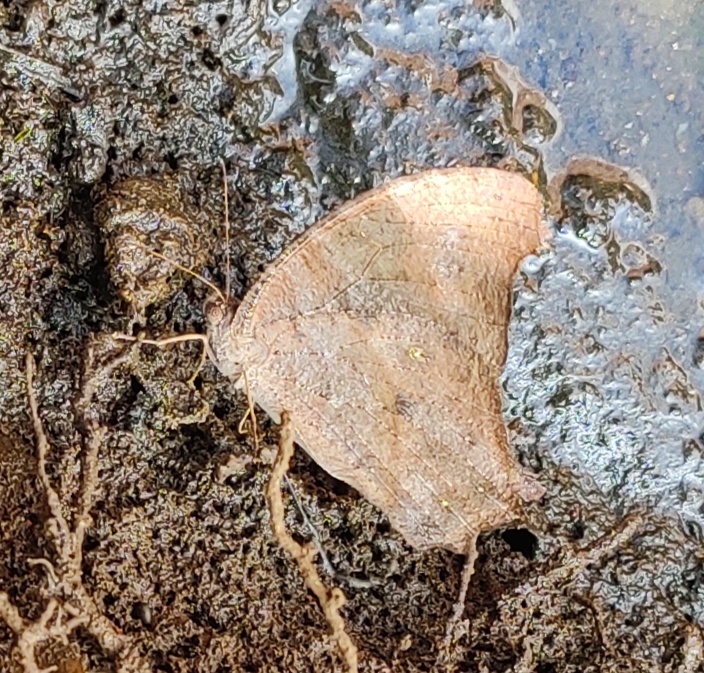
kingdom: Animalia
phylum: Arthropoda
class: Insecta
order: Lepidoptera
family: Nymphalidae
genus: Melanitis
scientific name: Melanitis leda
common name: Twilight brown
